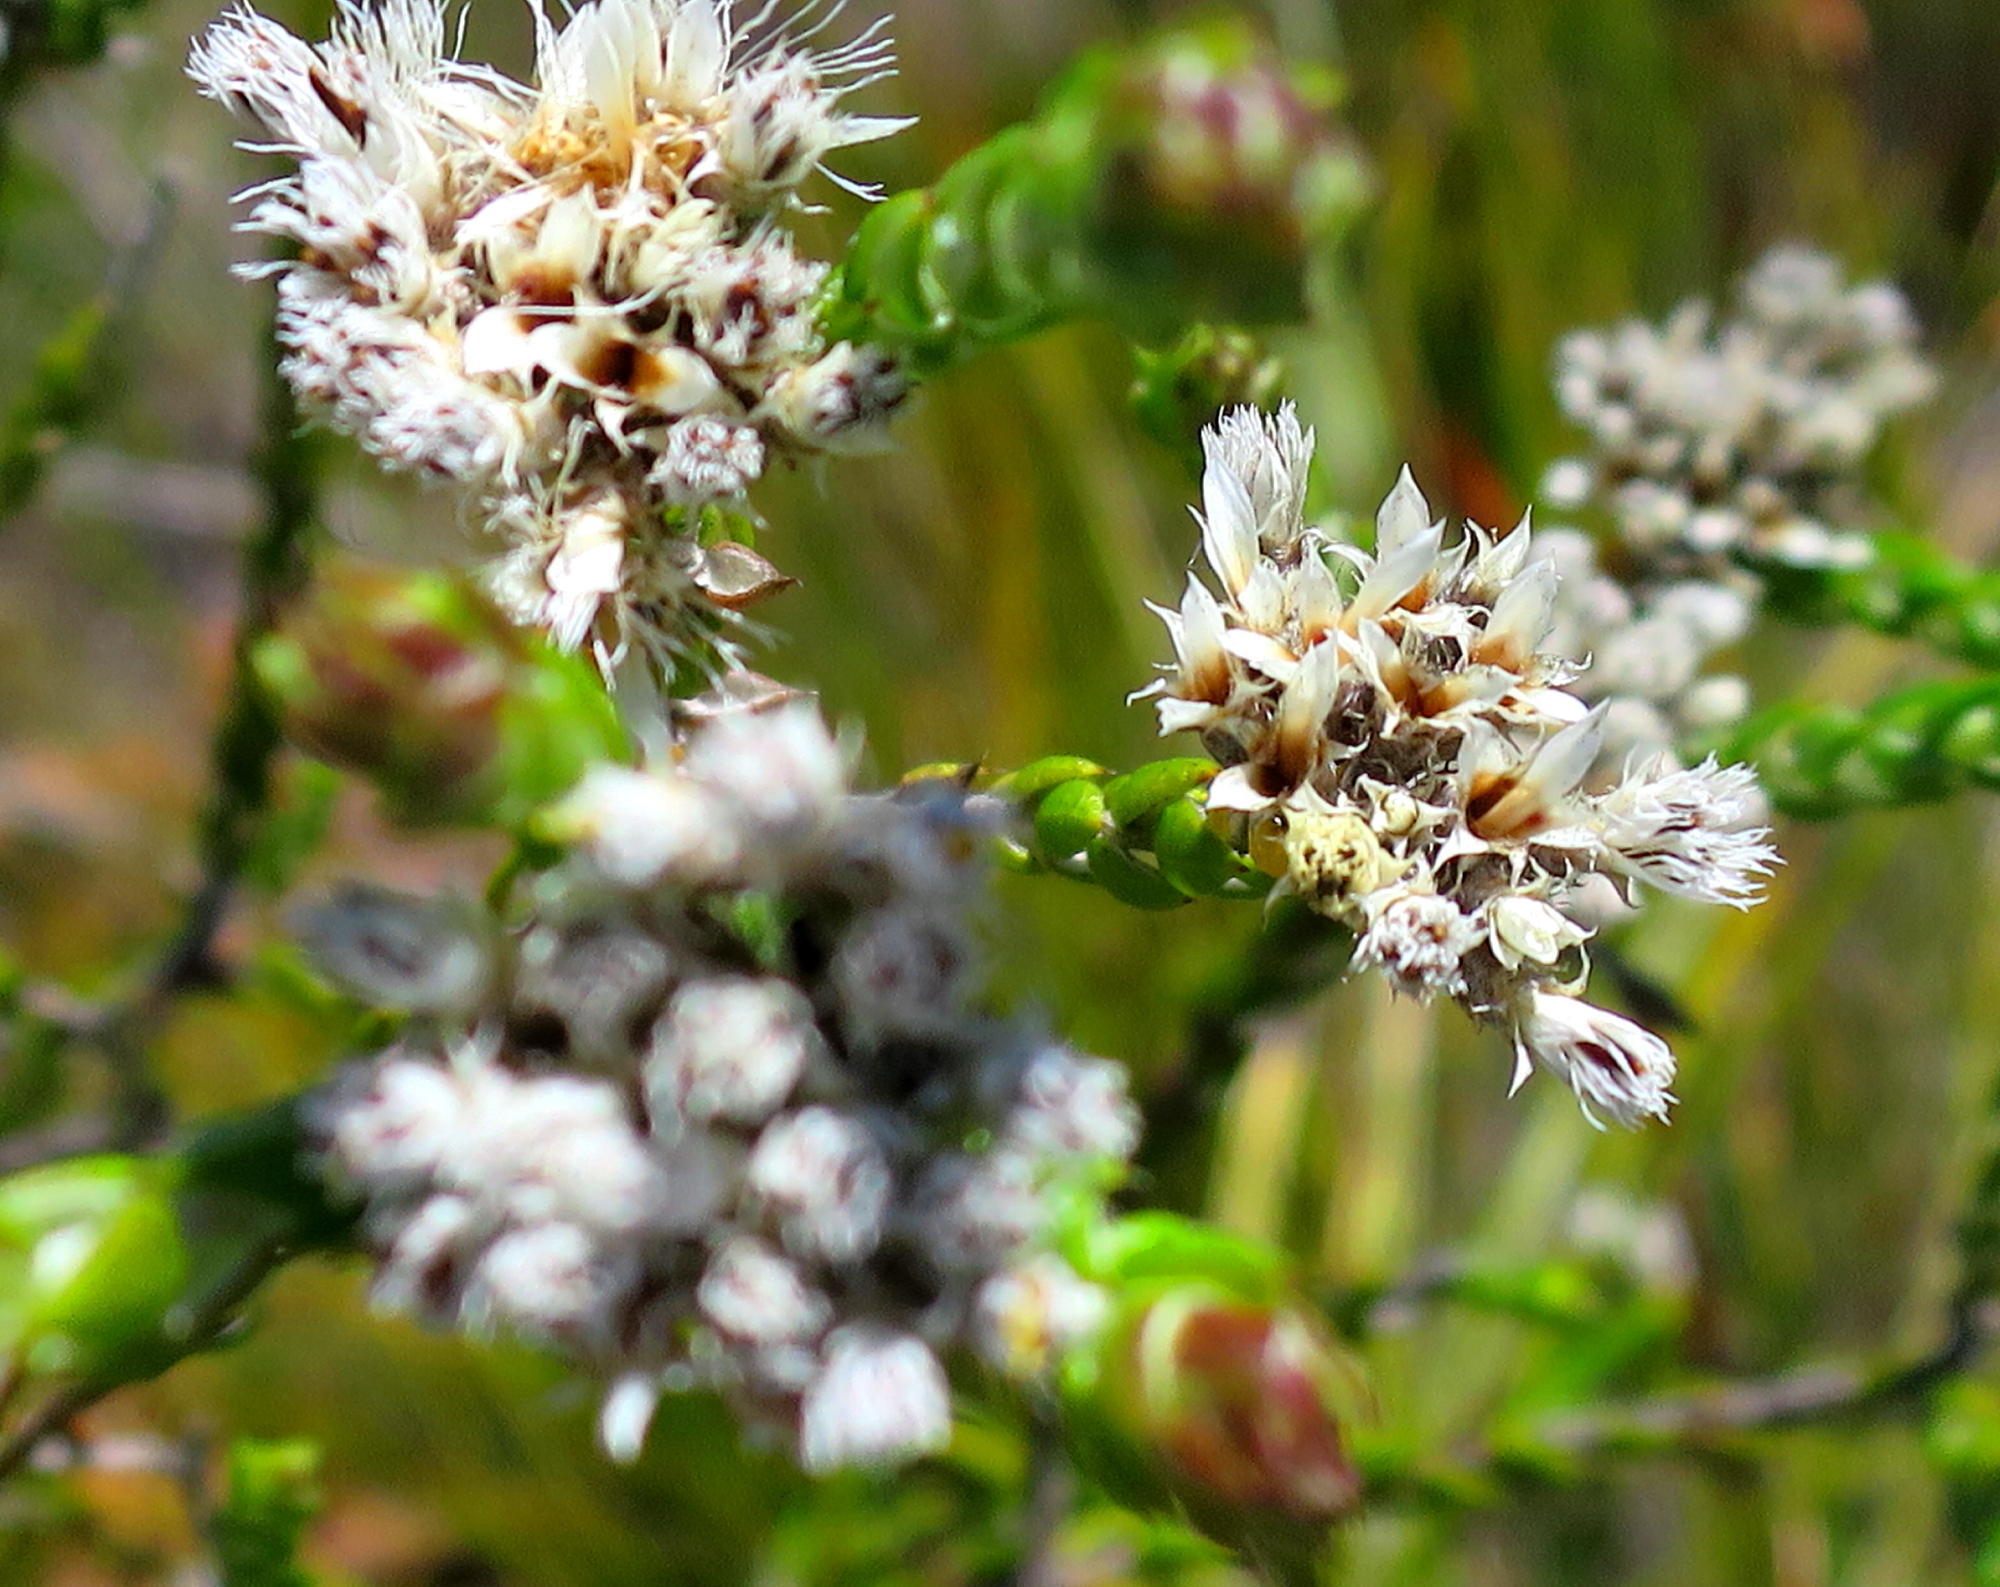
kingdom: Plantae
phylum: Tracheophyta
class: Magnoliopsida
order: Asterales
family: Asteraceae
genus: Metalasia
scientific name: Metalasia pulcherrima
